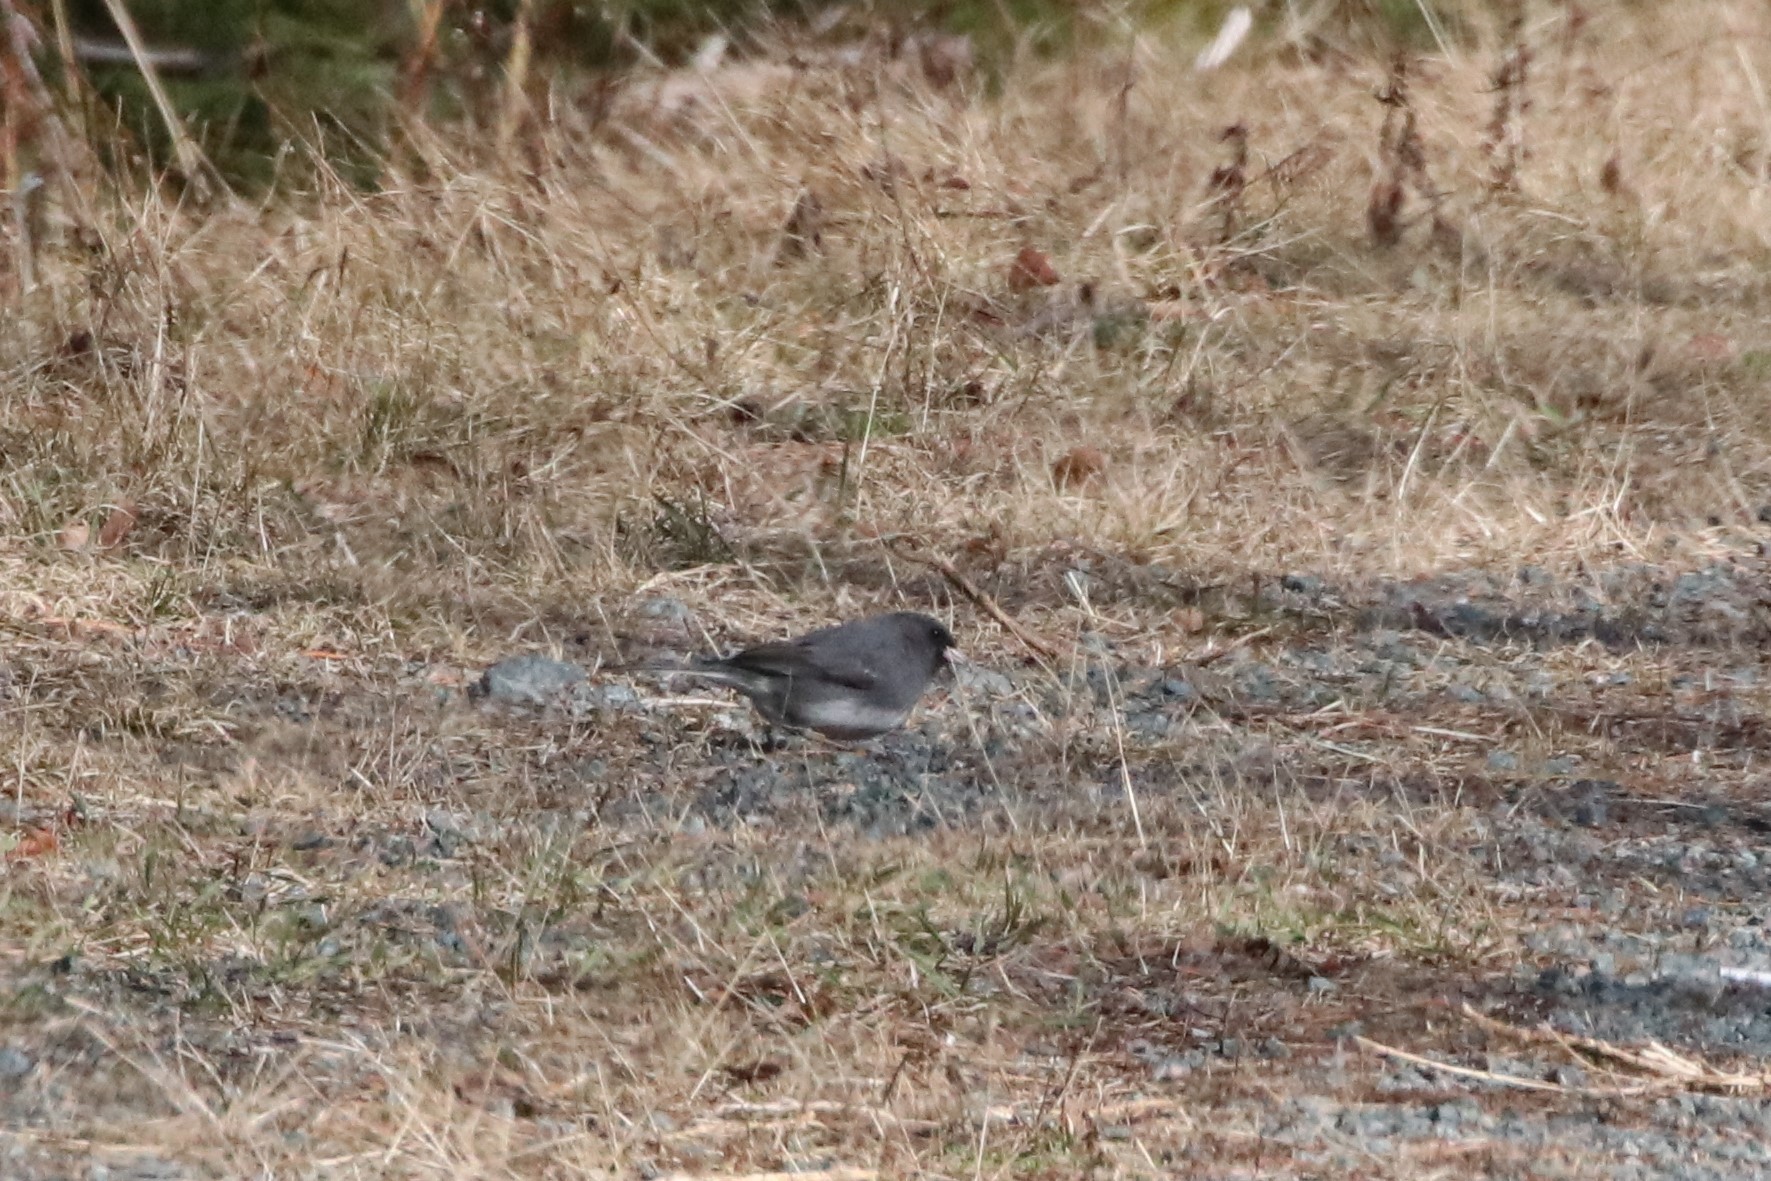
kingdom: Animalia
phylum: Chordata
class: Aves
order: Passeriformes
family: Passerellidae
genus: Junco
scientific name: Junco hyemalis
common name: Dark-eyed junco
